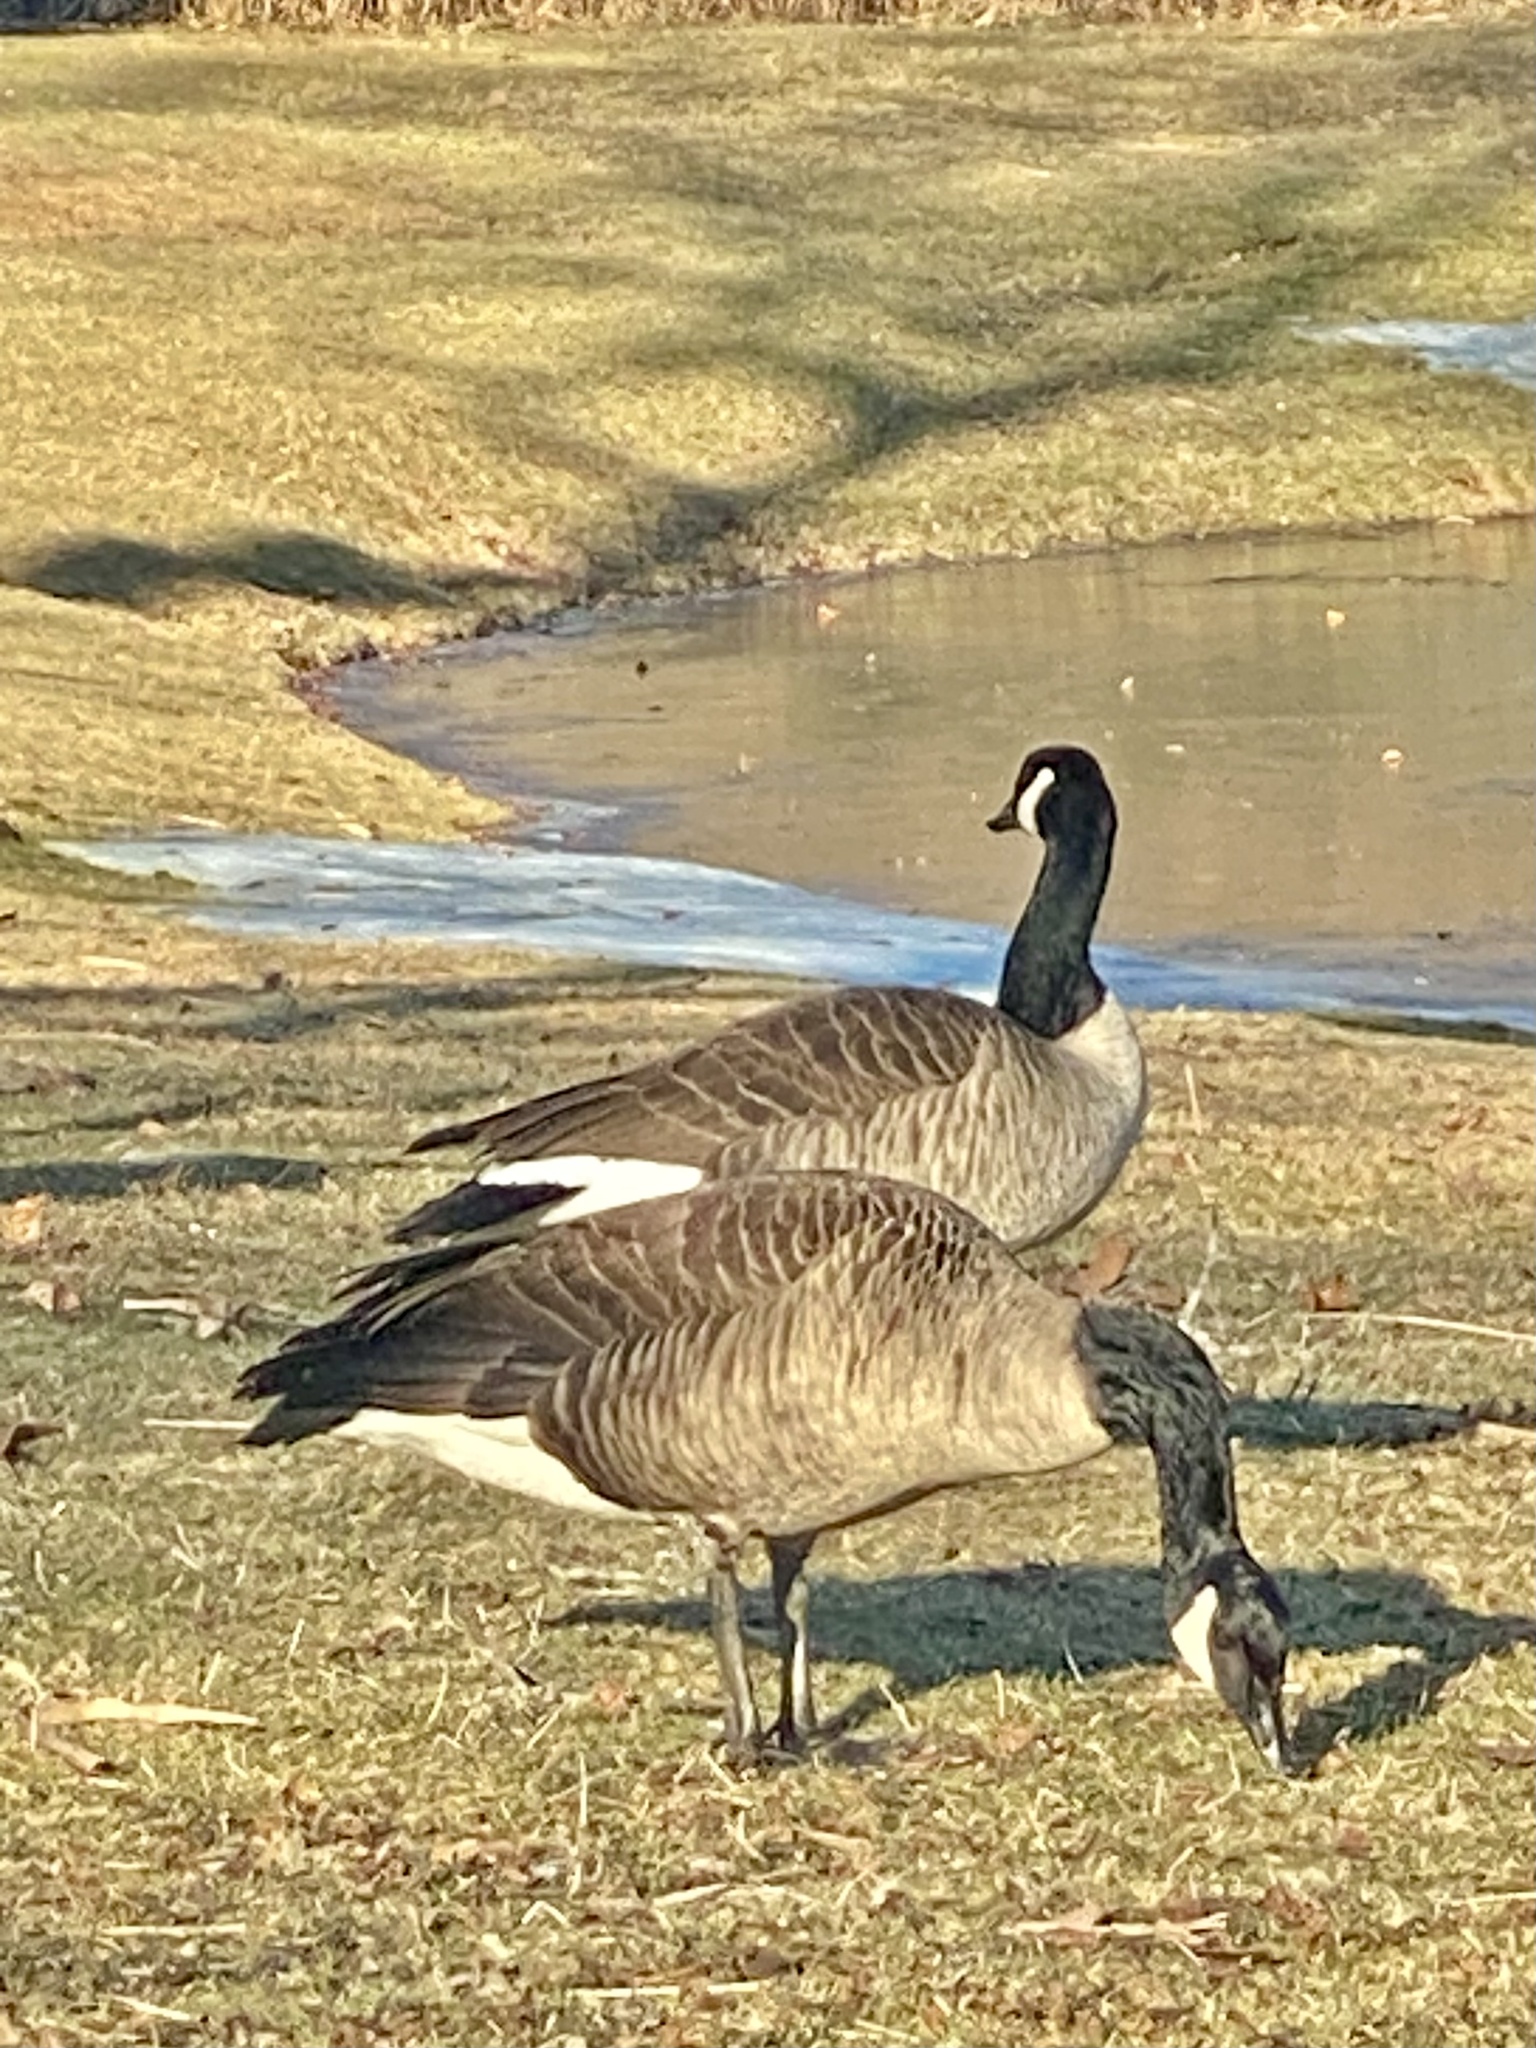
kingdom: Animalia
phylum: Chordata
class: Aves
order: Anseriformes
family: Anatidae
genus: Branta
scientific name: Branta canadensis
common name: Canada goose
